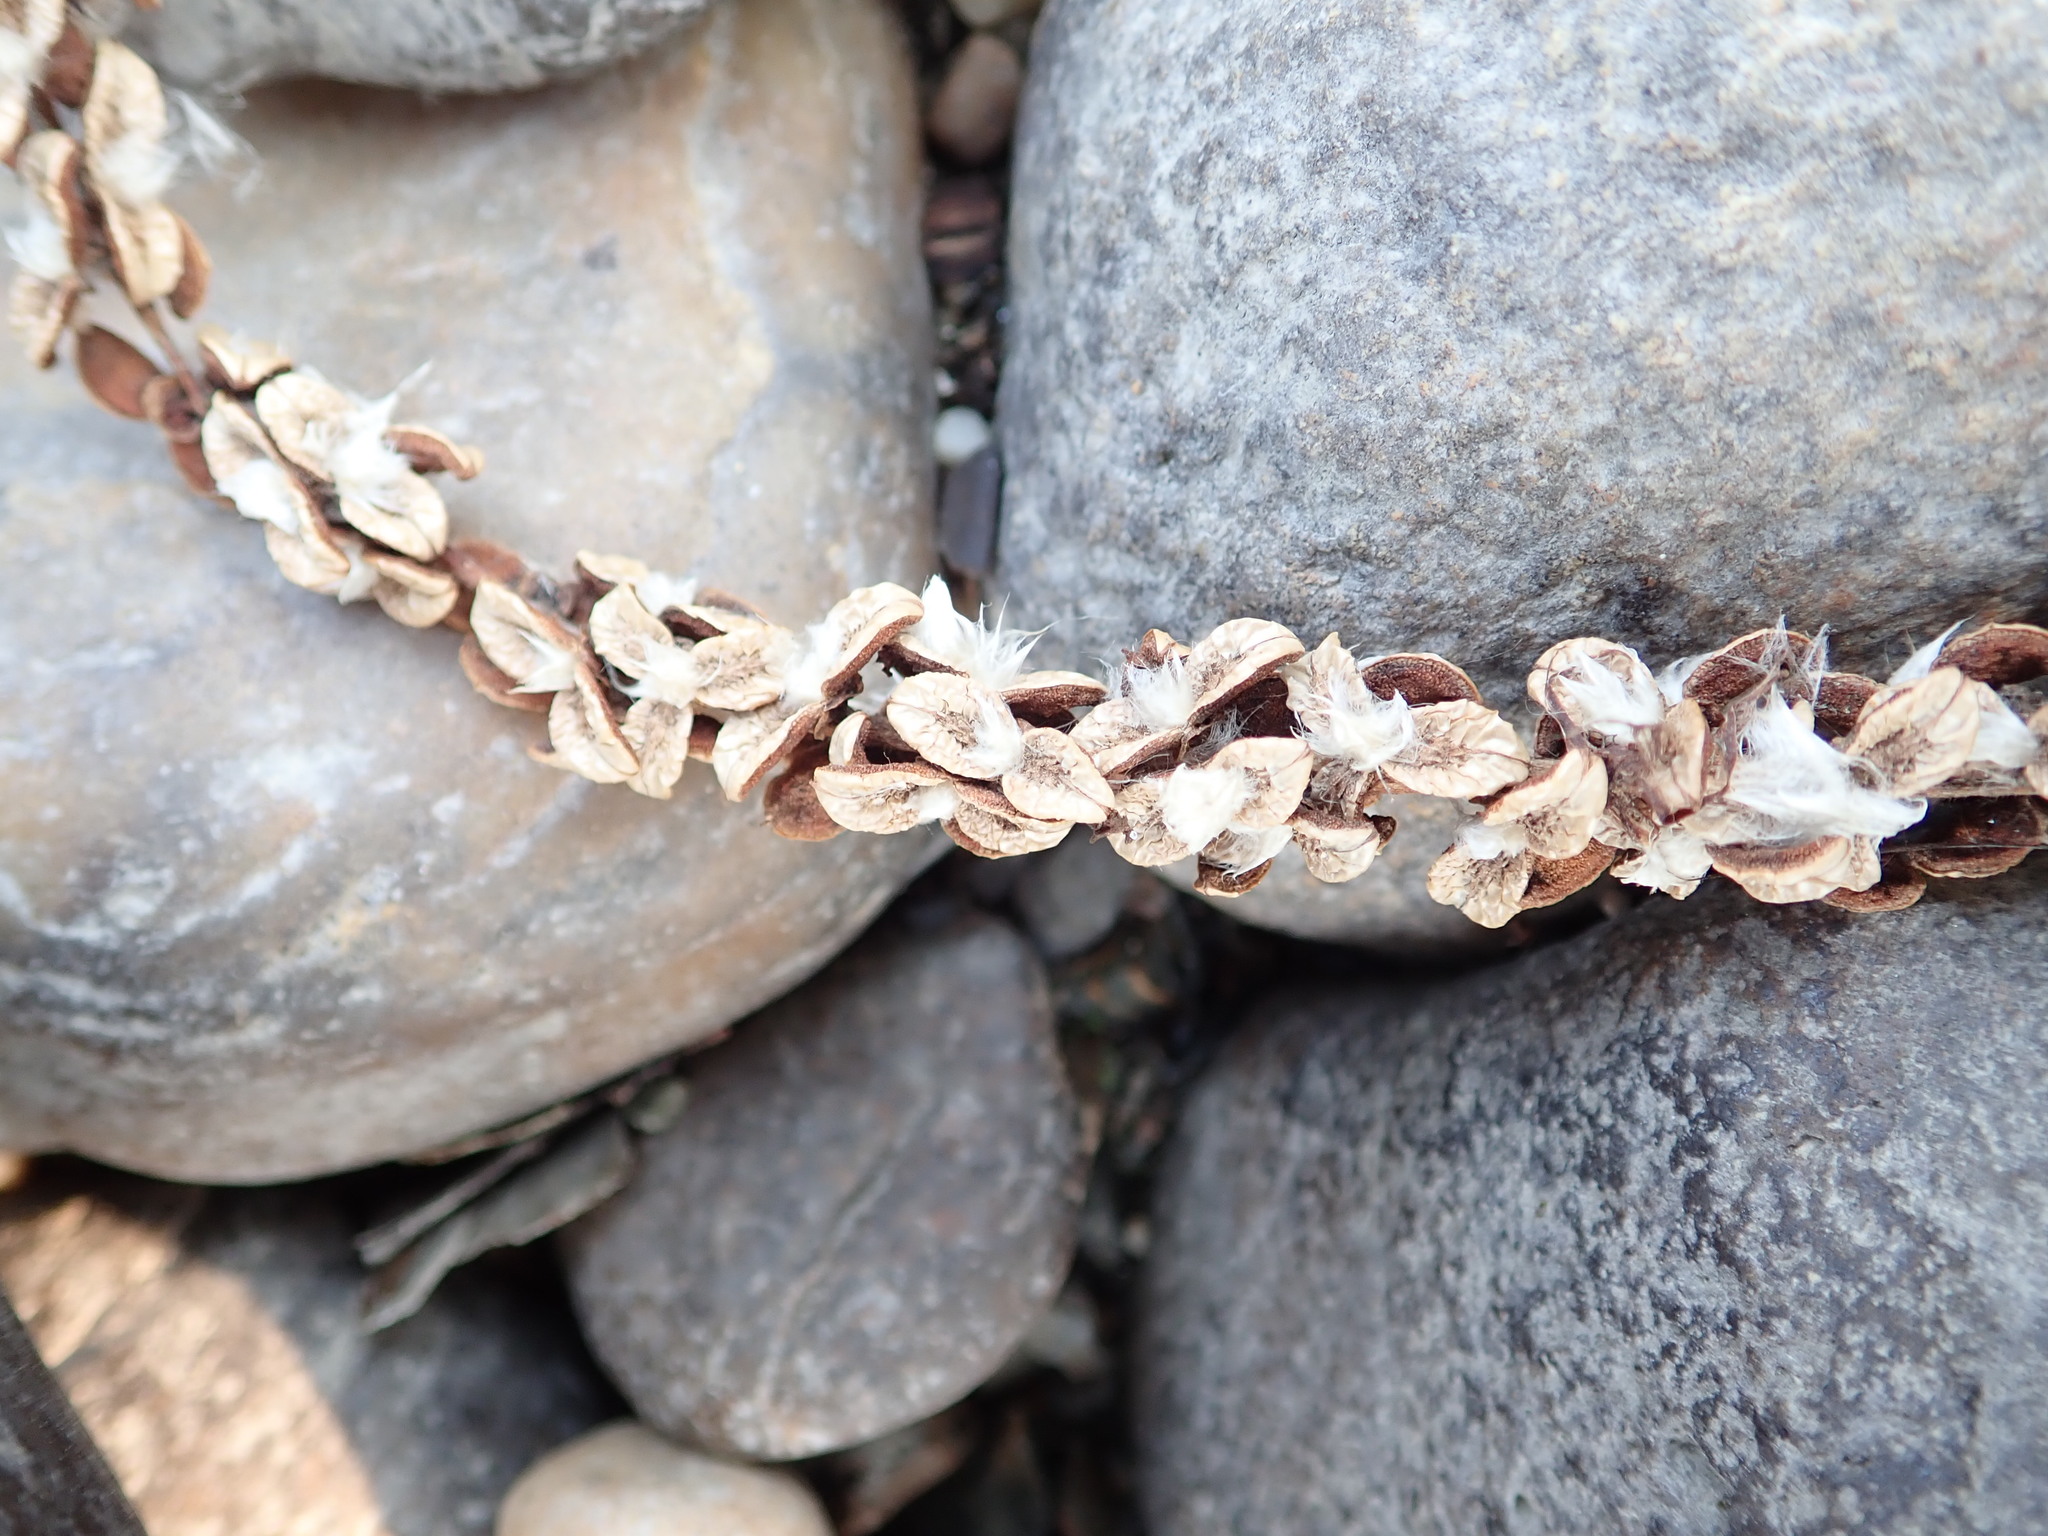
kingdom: Plantae
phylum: Tracheophyta
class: Magnoliopsida
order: Malpighiales
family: Salicaceae
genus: Populus
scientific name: Populus balsamifera
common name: Balsam poplar
